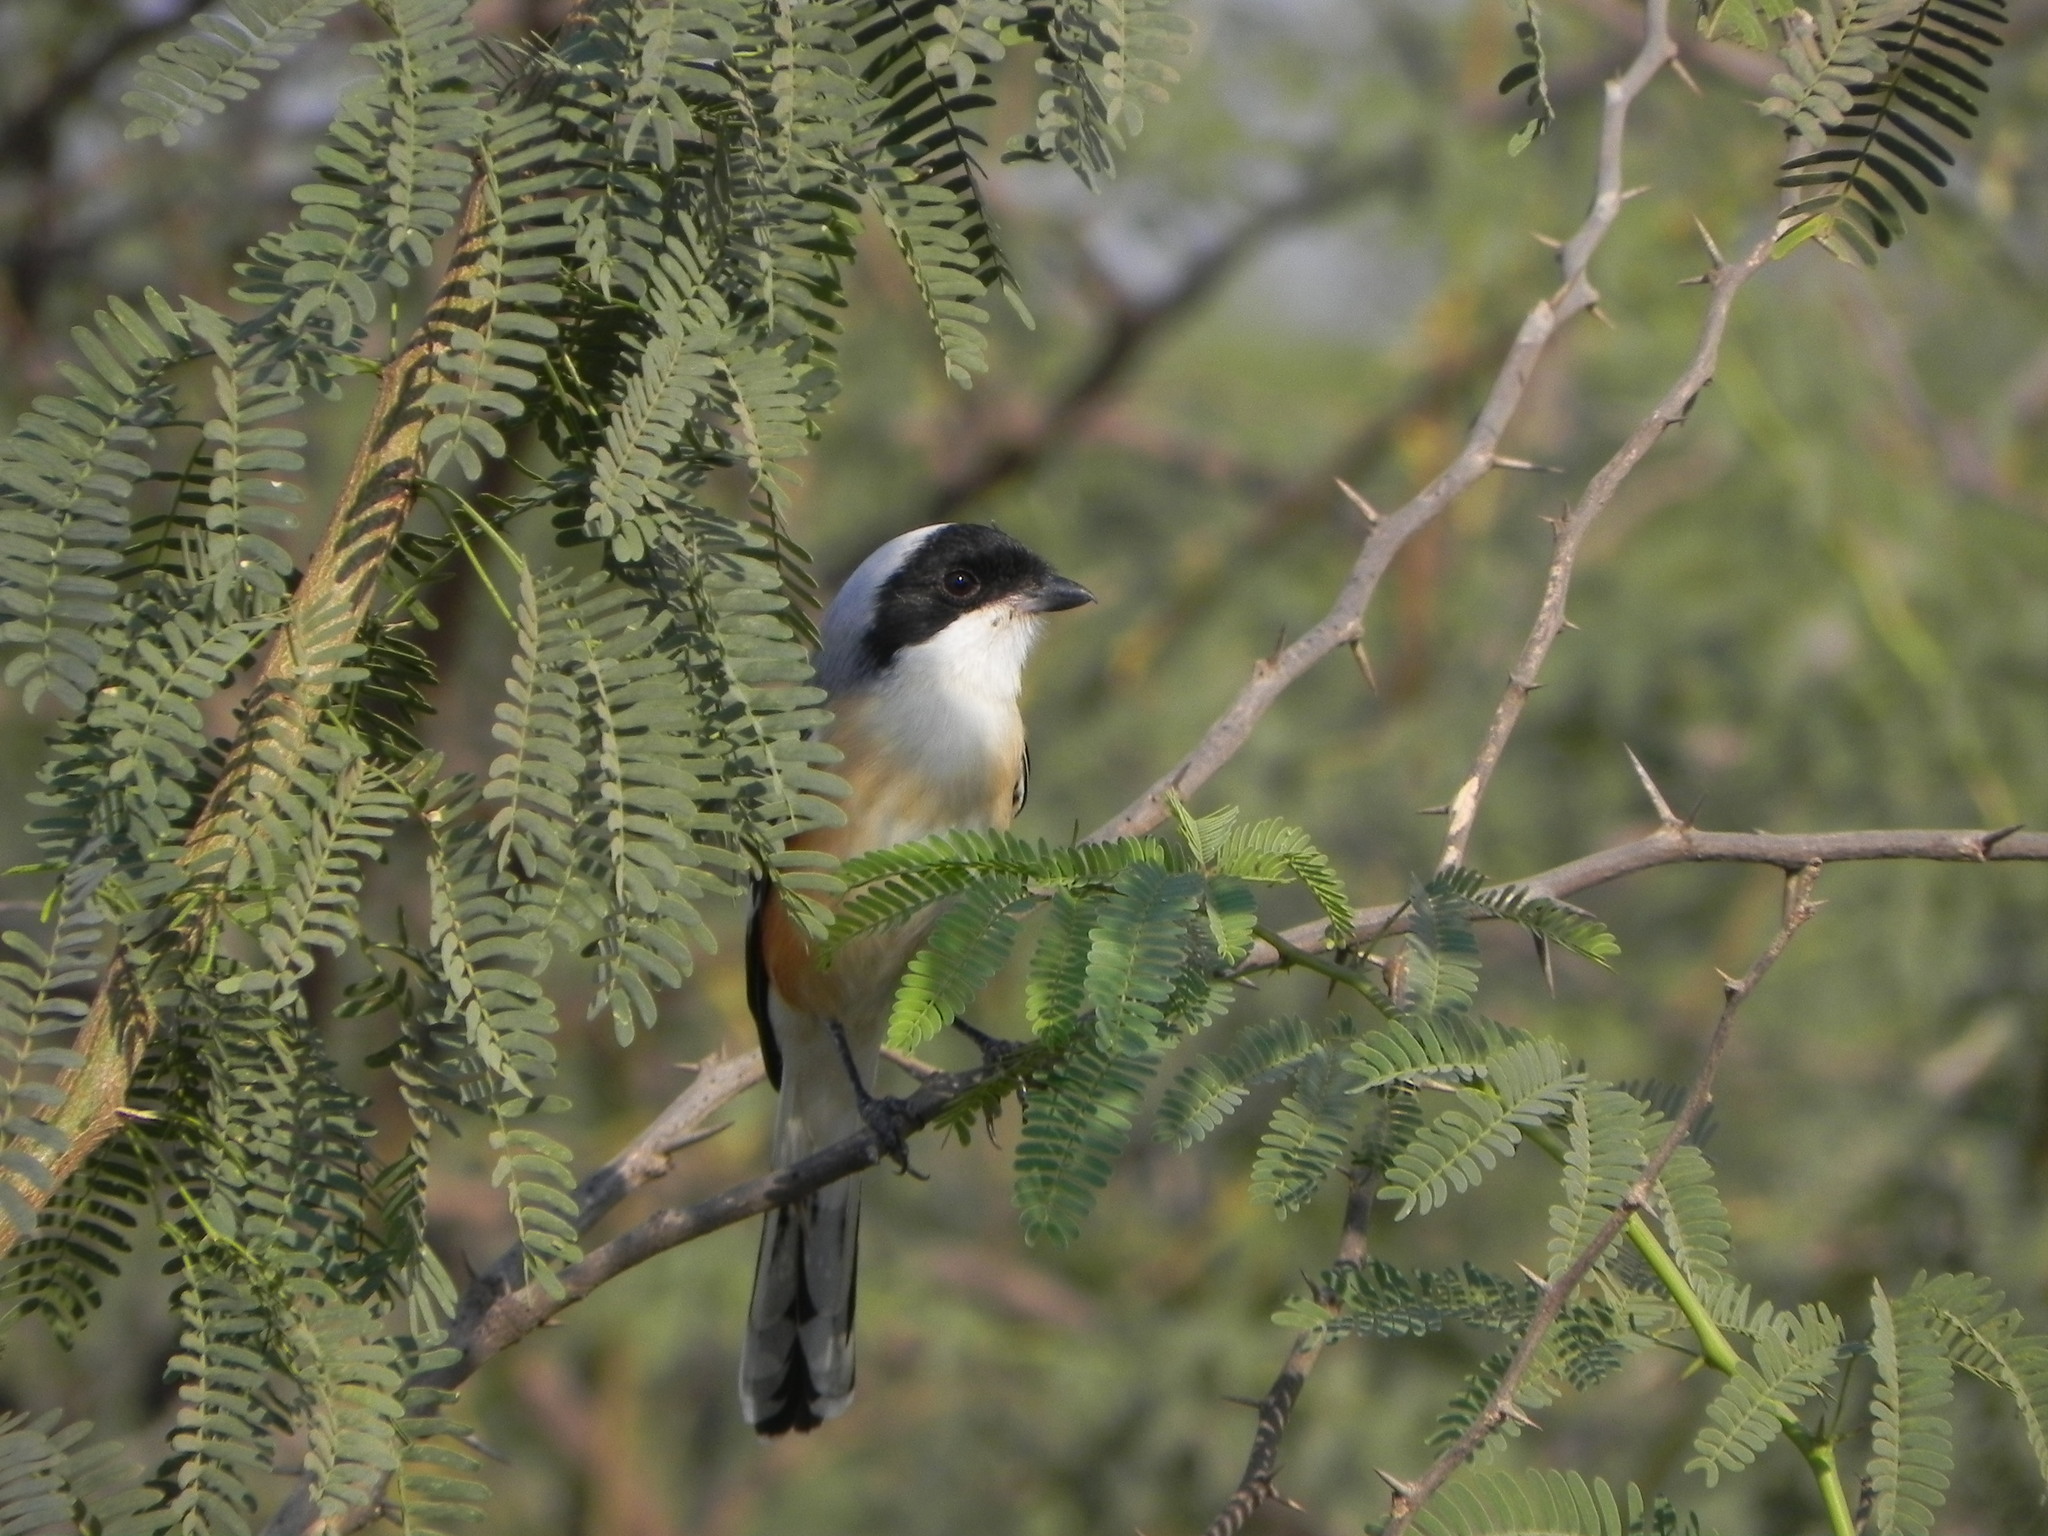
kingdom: Animalia
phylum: Chordata
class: Aves
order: Passeriformes
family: Laniidae
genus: Lanius
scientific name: Lanius vittatus
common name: Bay-backed shrike
